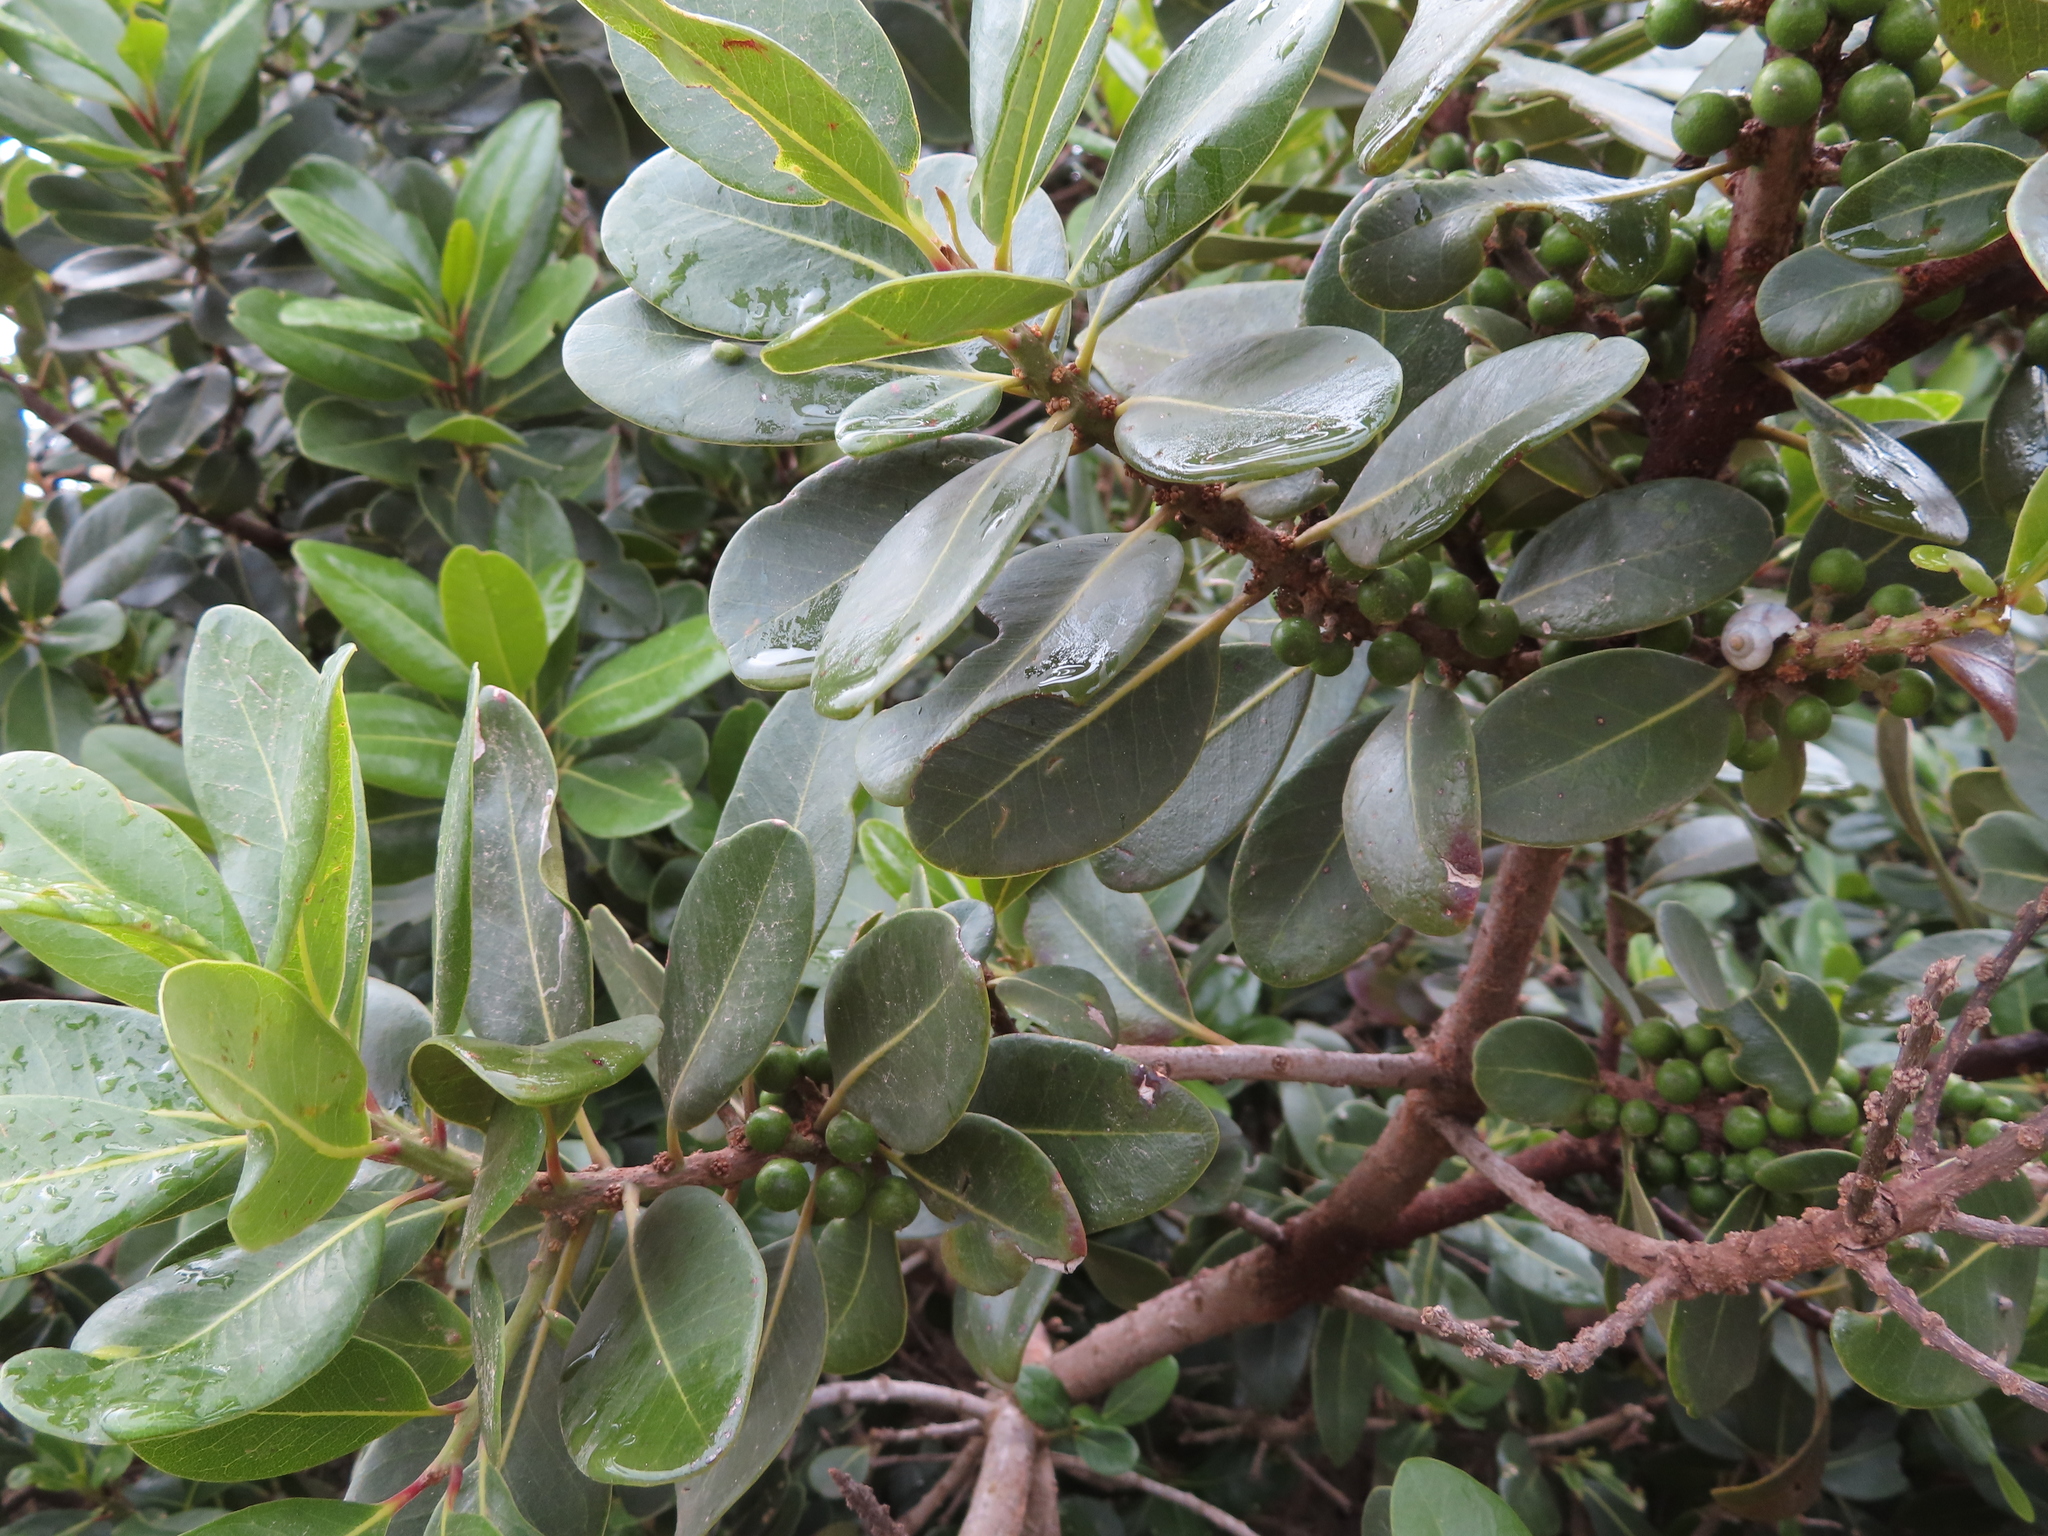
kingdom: Plantae
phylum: Tracheophyta
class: Magnoliopsida
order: Ericales
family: Sapotaceae
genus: Sideroxylon
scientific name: Sideroxylon inerme
